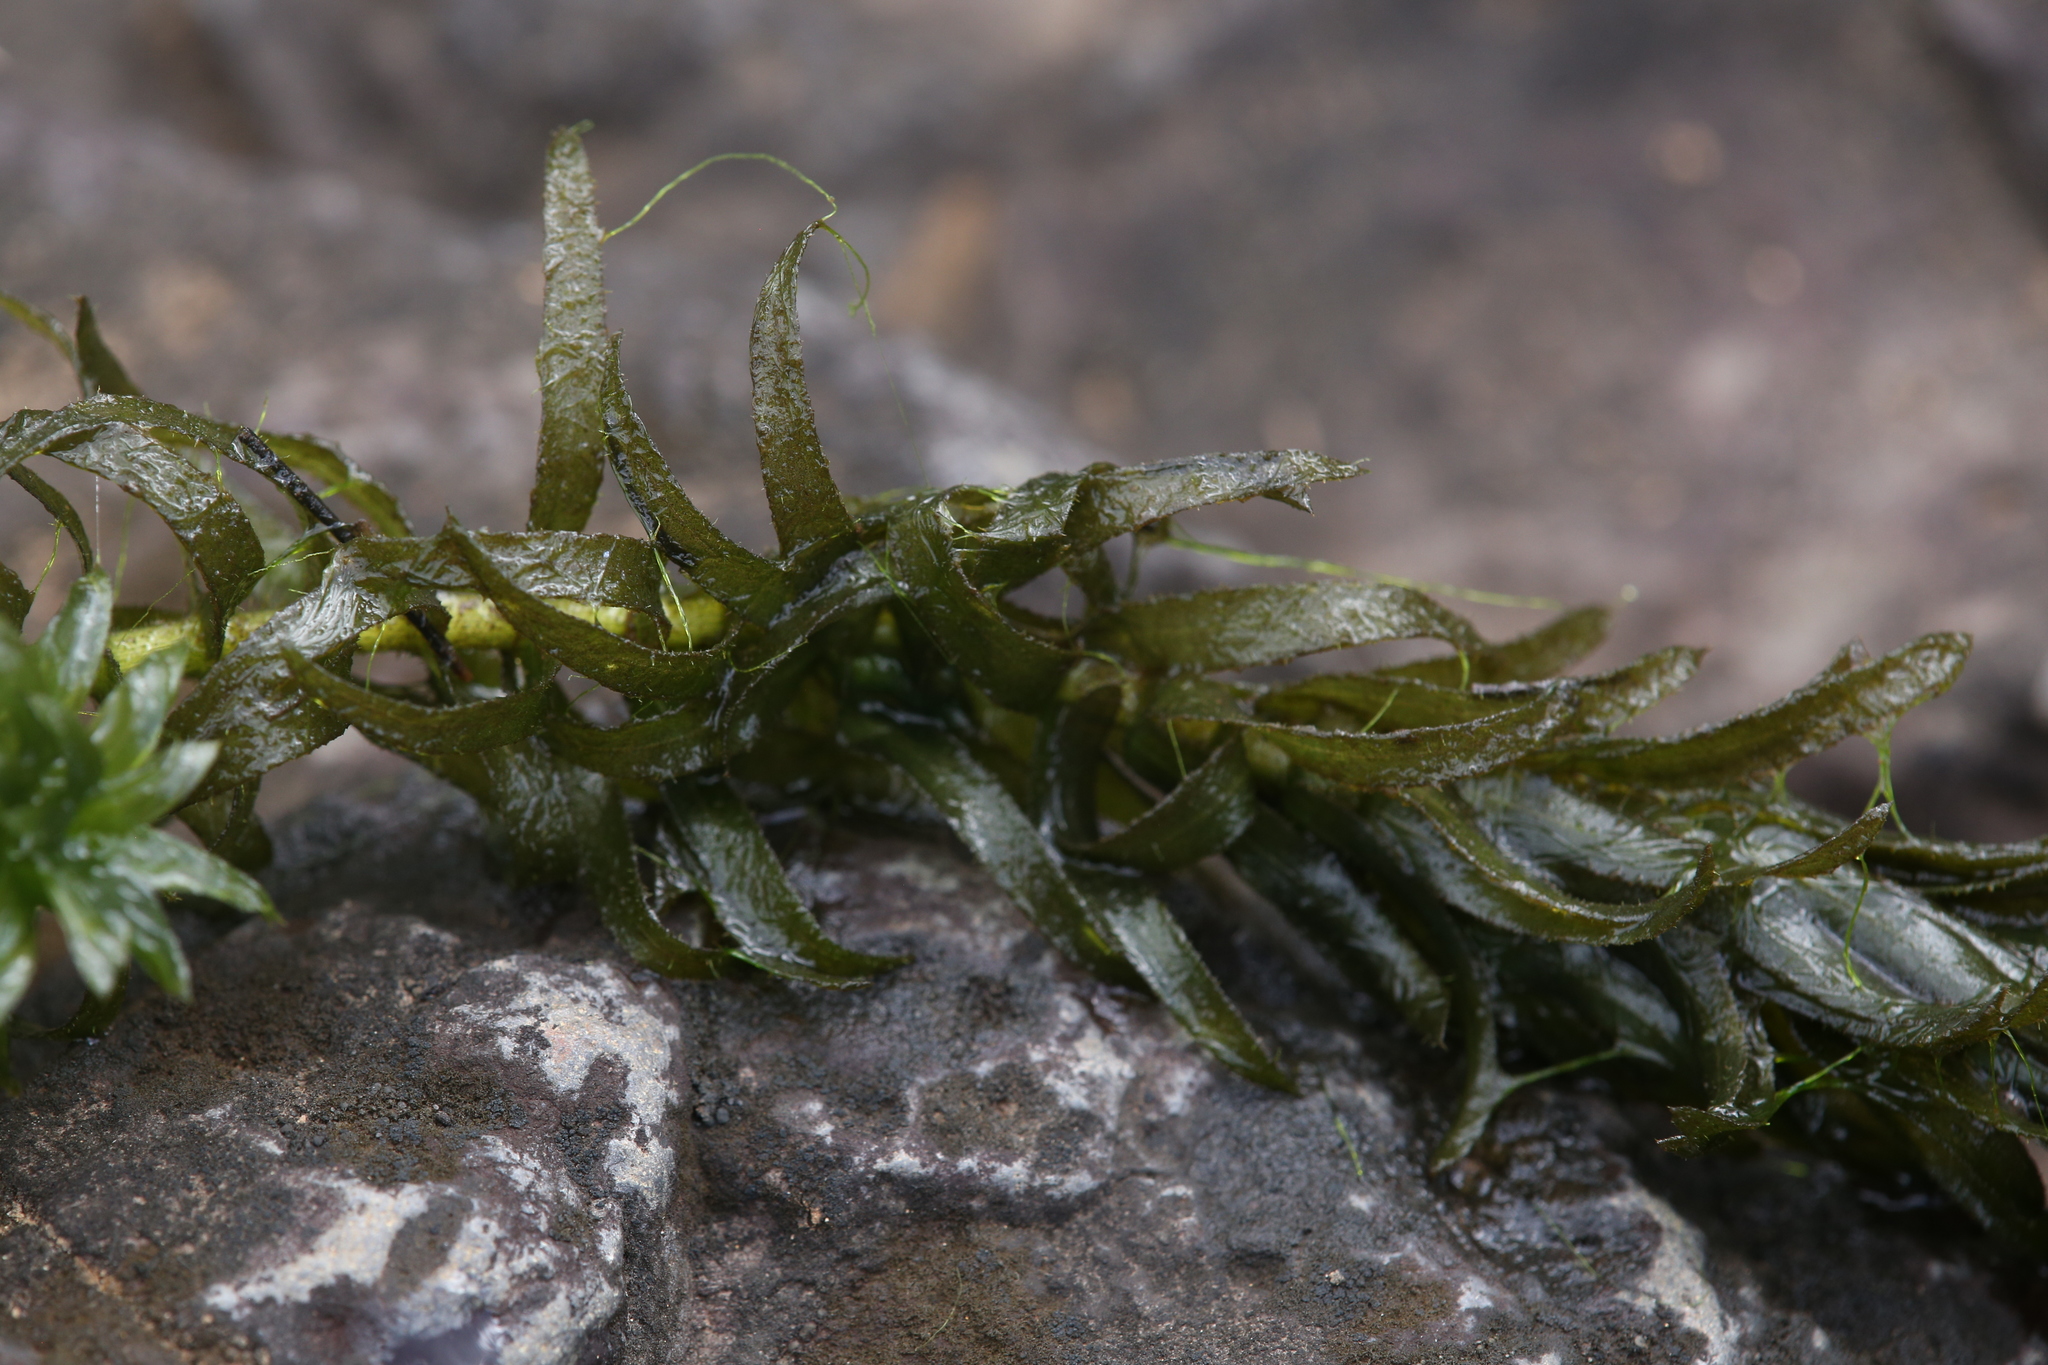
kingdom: Plantae
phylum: Tracheophyta
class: Liliopsida
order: Alismatales
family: Hydrocharitaceae
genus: Elodea
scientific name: Elodea densa
